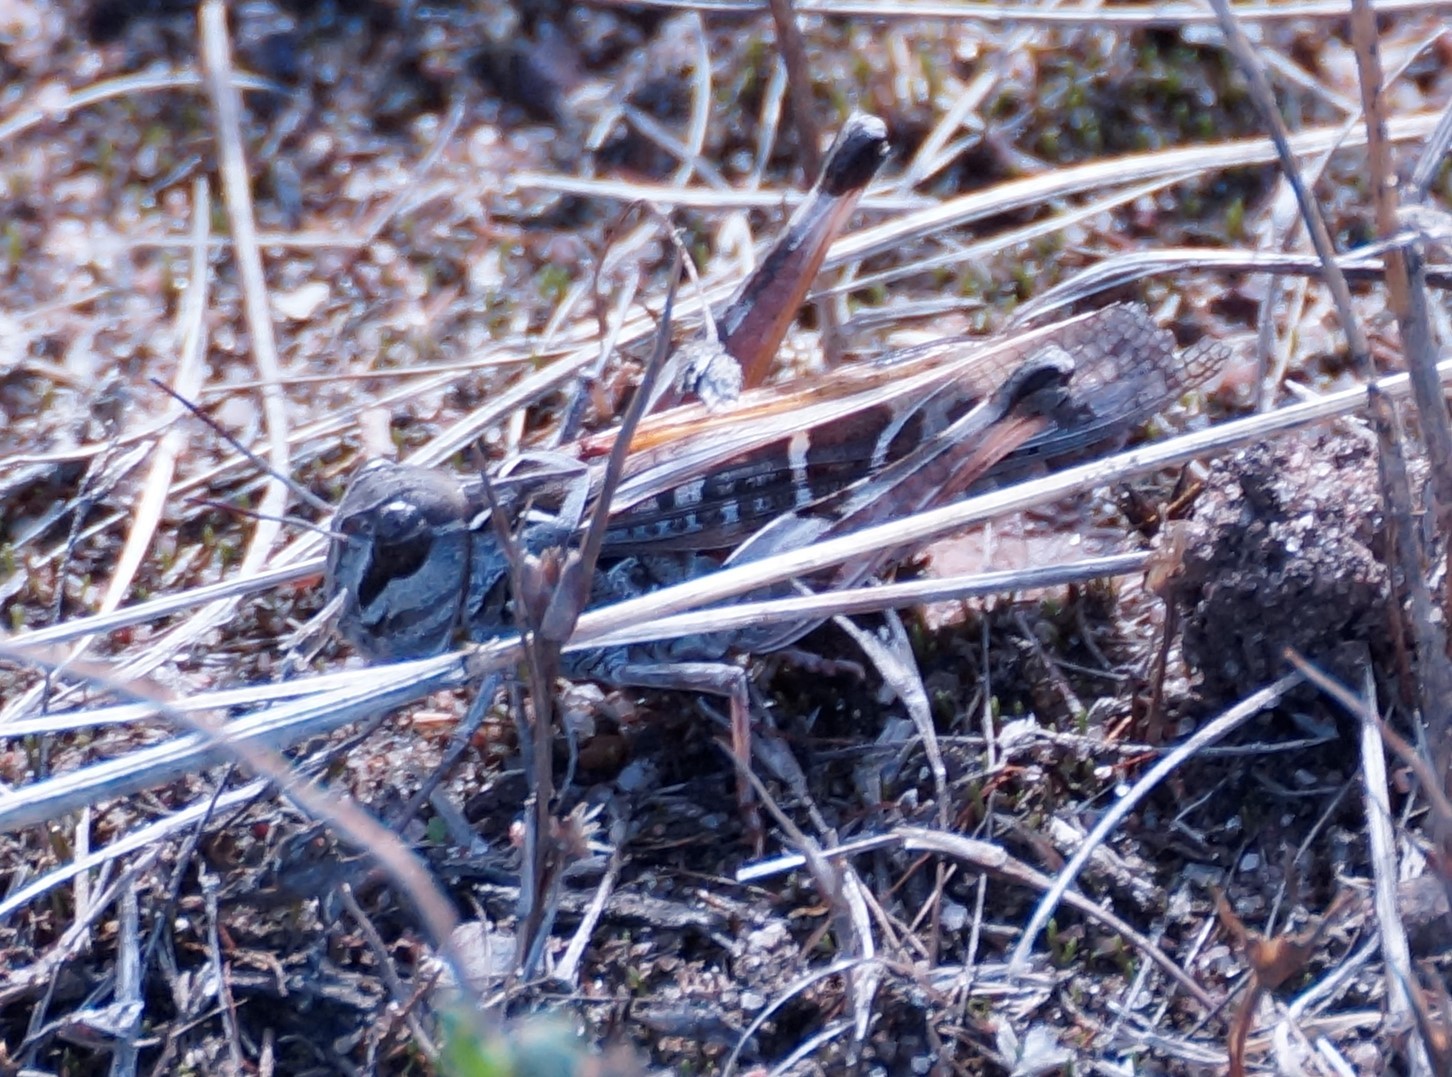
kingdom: Animalia
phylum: Arthropoda
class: Insecta
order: Orthoptera
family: Acrididae
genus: Oedaleus
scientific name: Oedaleus australis
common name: Eastern oedaleus
